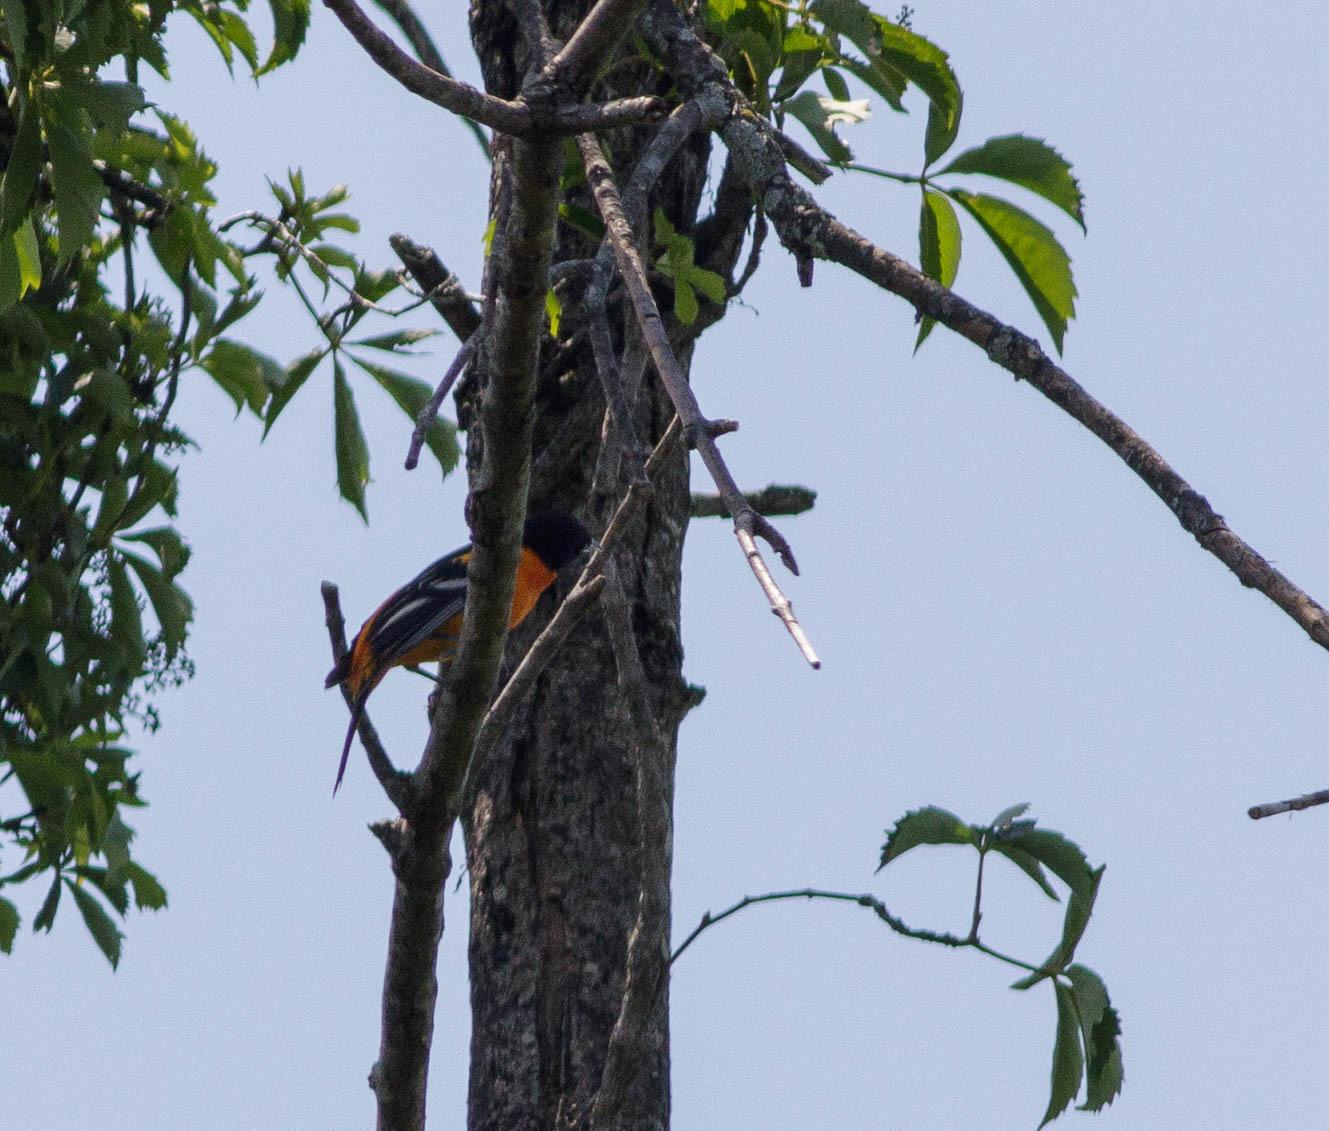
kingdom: Animalia
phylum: Chordata
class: Aves
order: Passeriformes
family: Icteridae
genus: Icterus
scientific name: Icterus galbula
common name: Baltimore oriole
